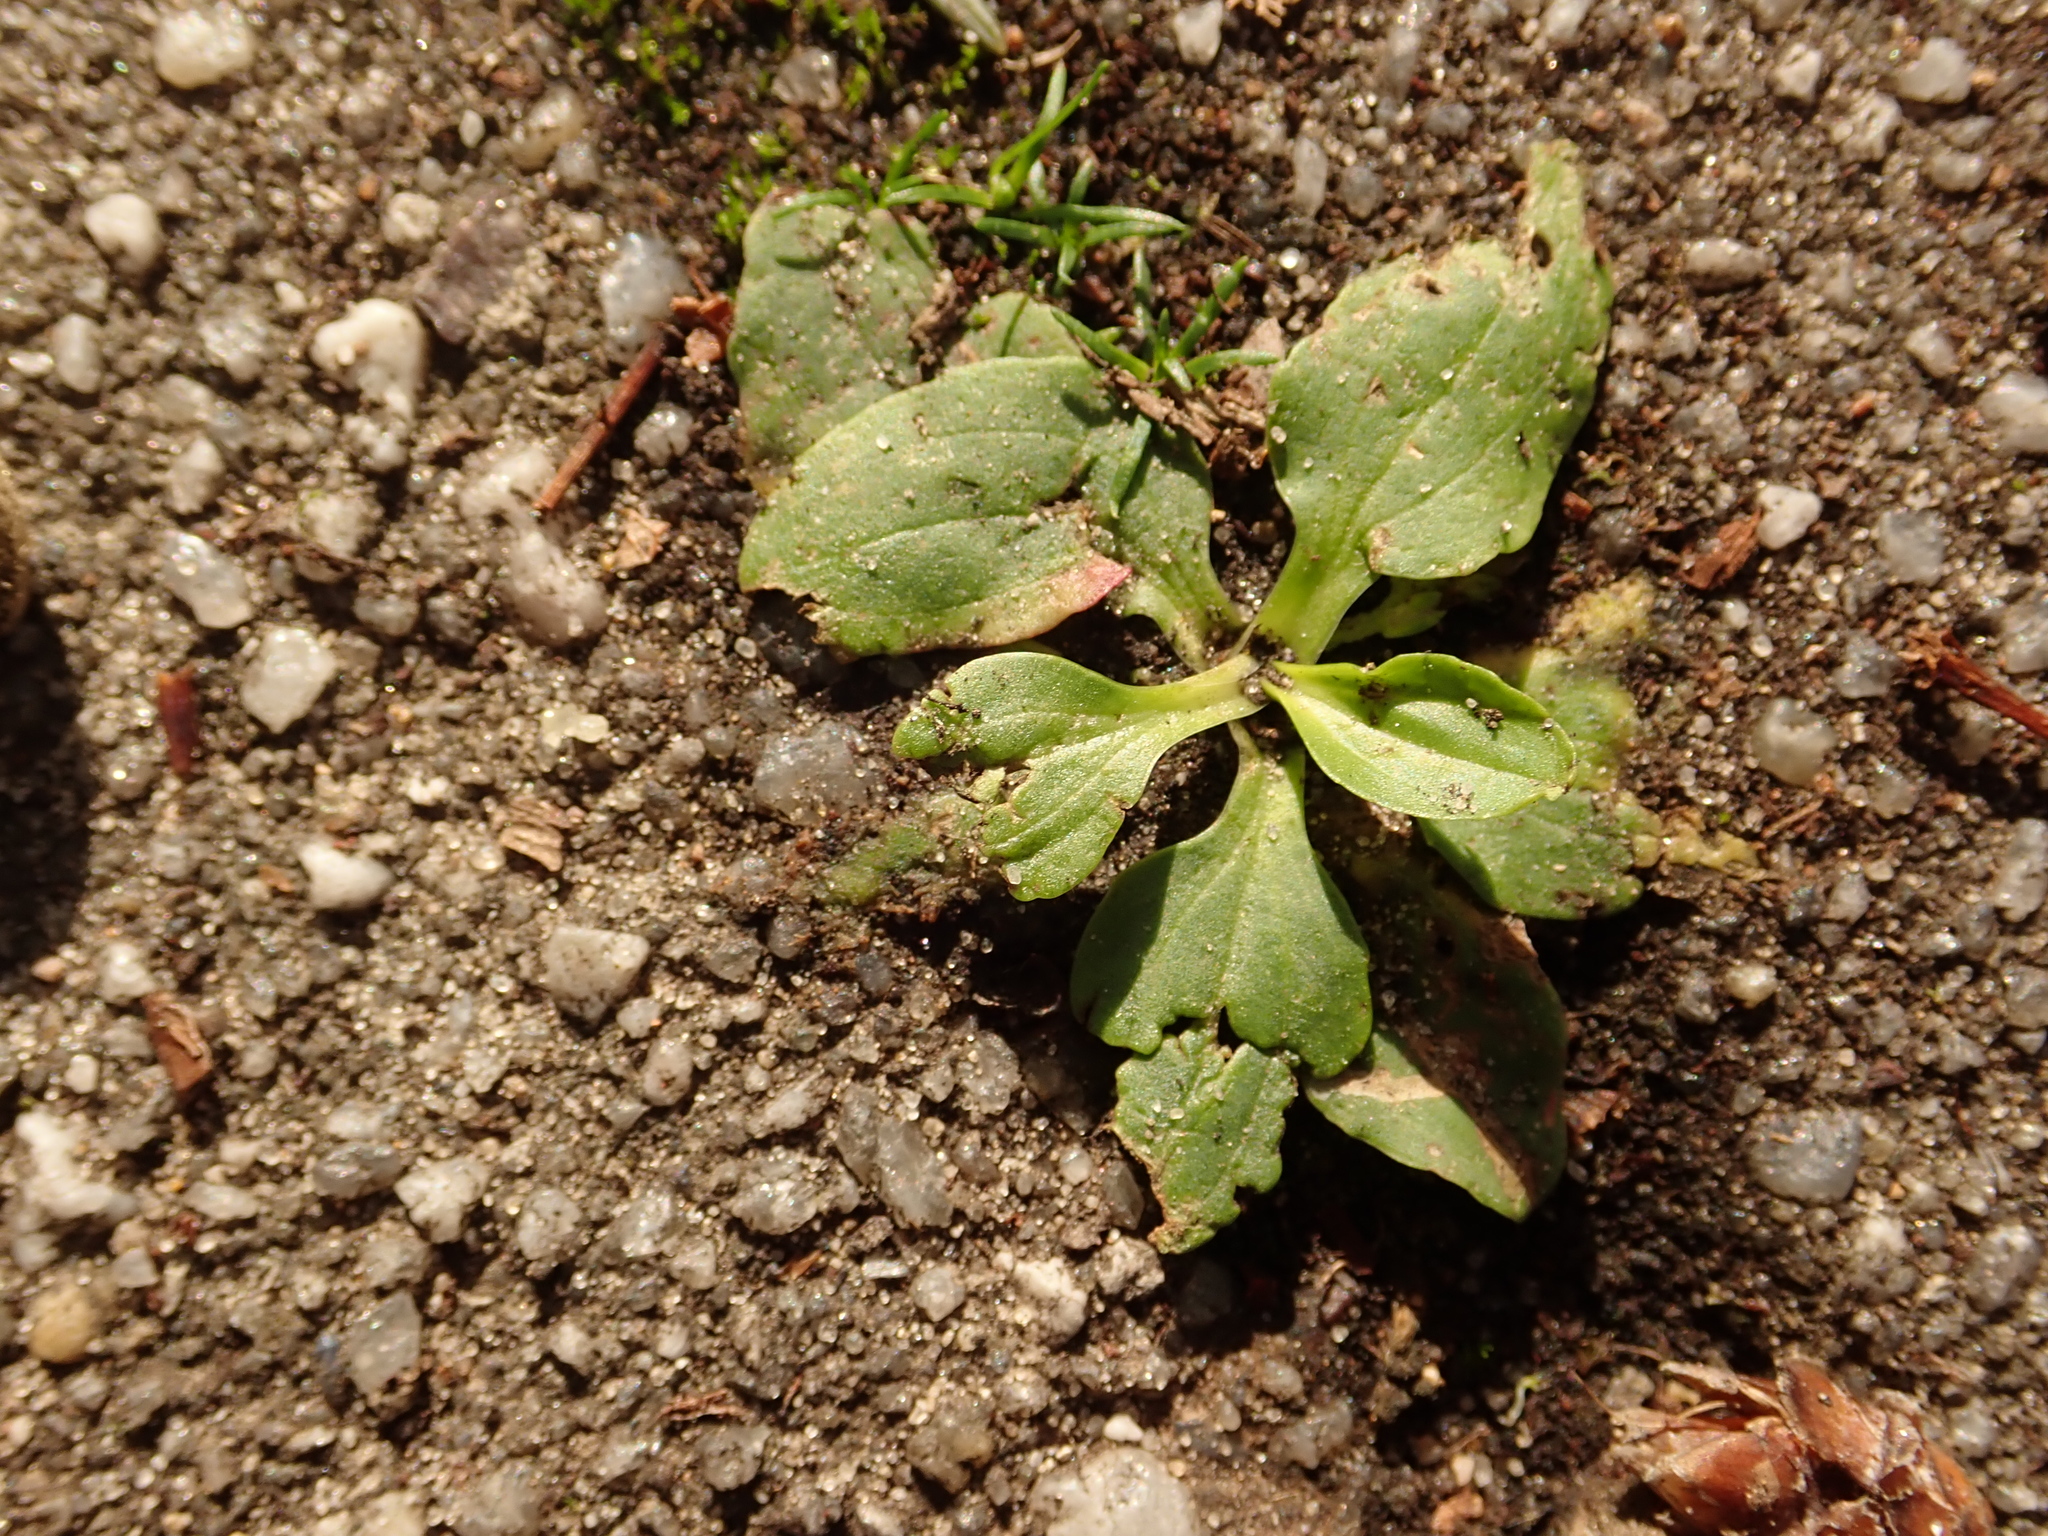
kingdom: Plantae
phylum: Tracheophyta
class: Magnoliopsida
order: Lamiales
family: Plantaginaceae
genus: Plantago
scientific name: Plantago major
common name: Common plantain
